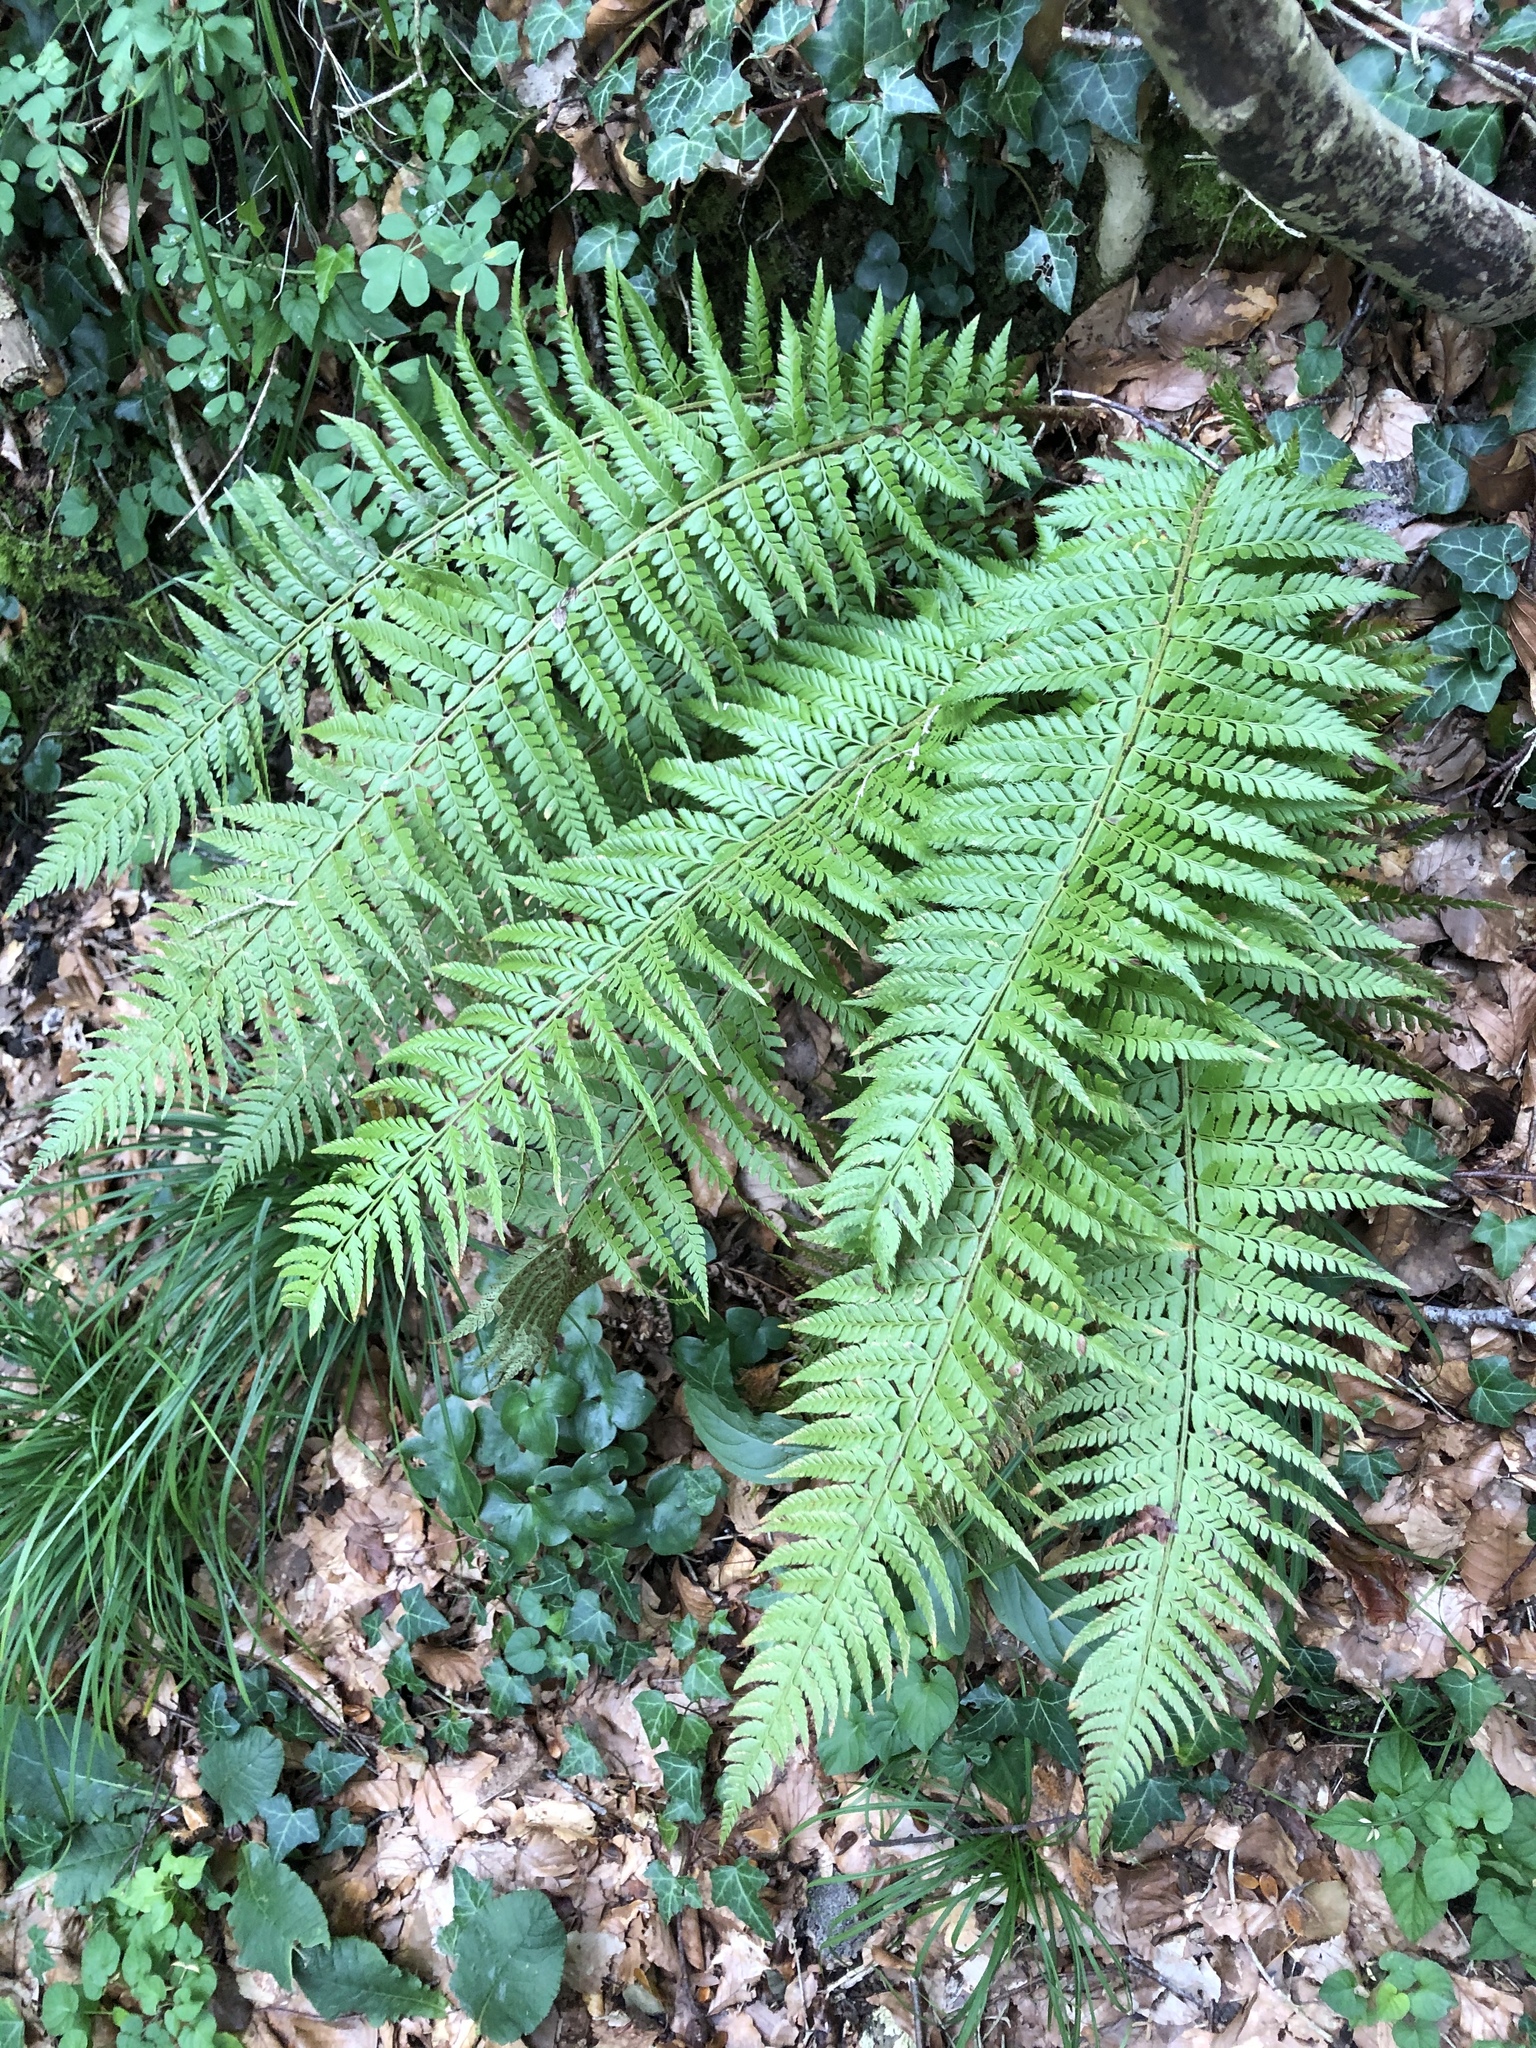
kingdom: Plantae
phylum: Tracheophyta
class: Polypodiopsida
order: Polypodiales
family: Dryopteridaceae
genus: Polystichum
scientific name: Polystichum aculeatum
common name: Hard shield-fern
